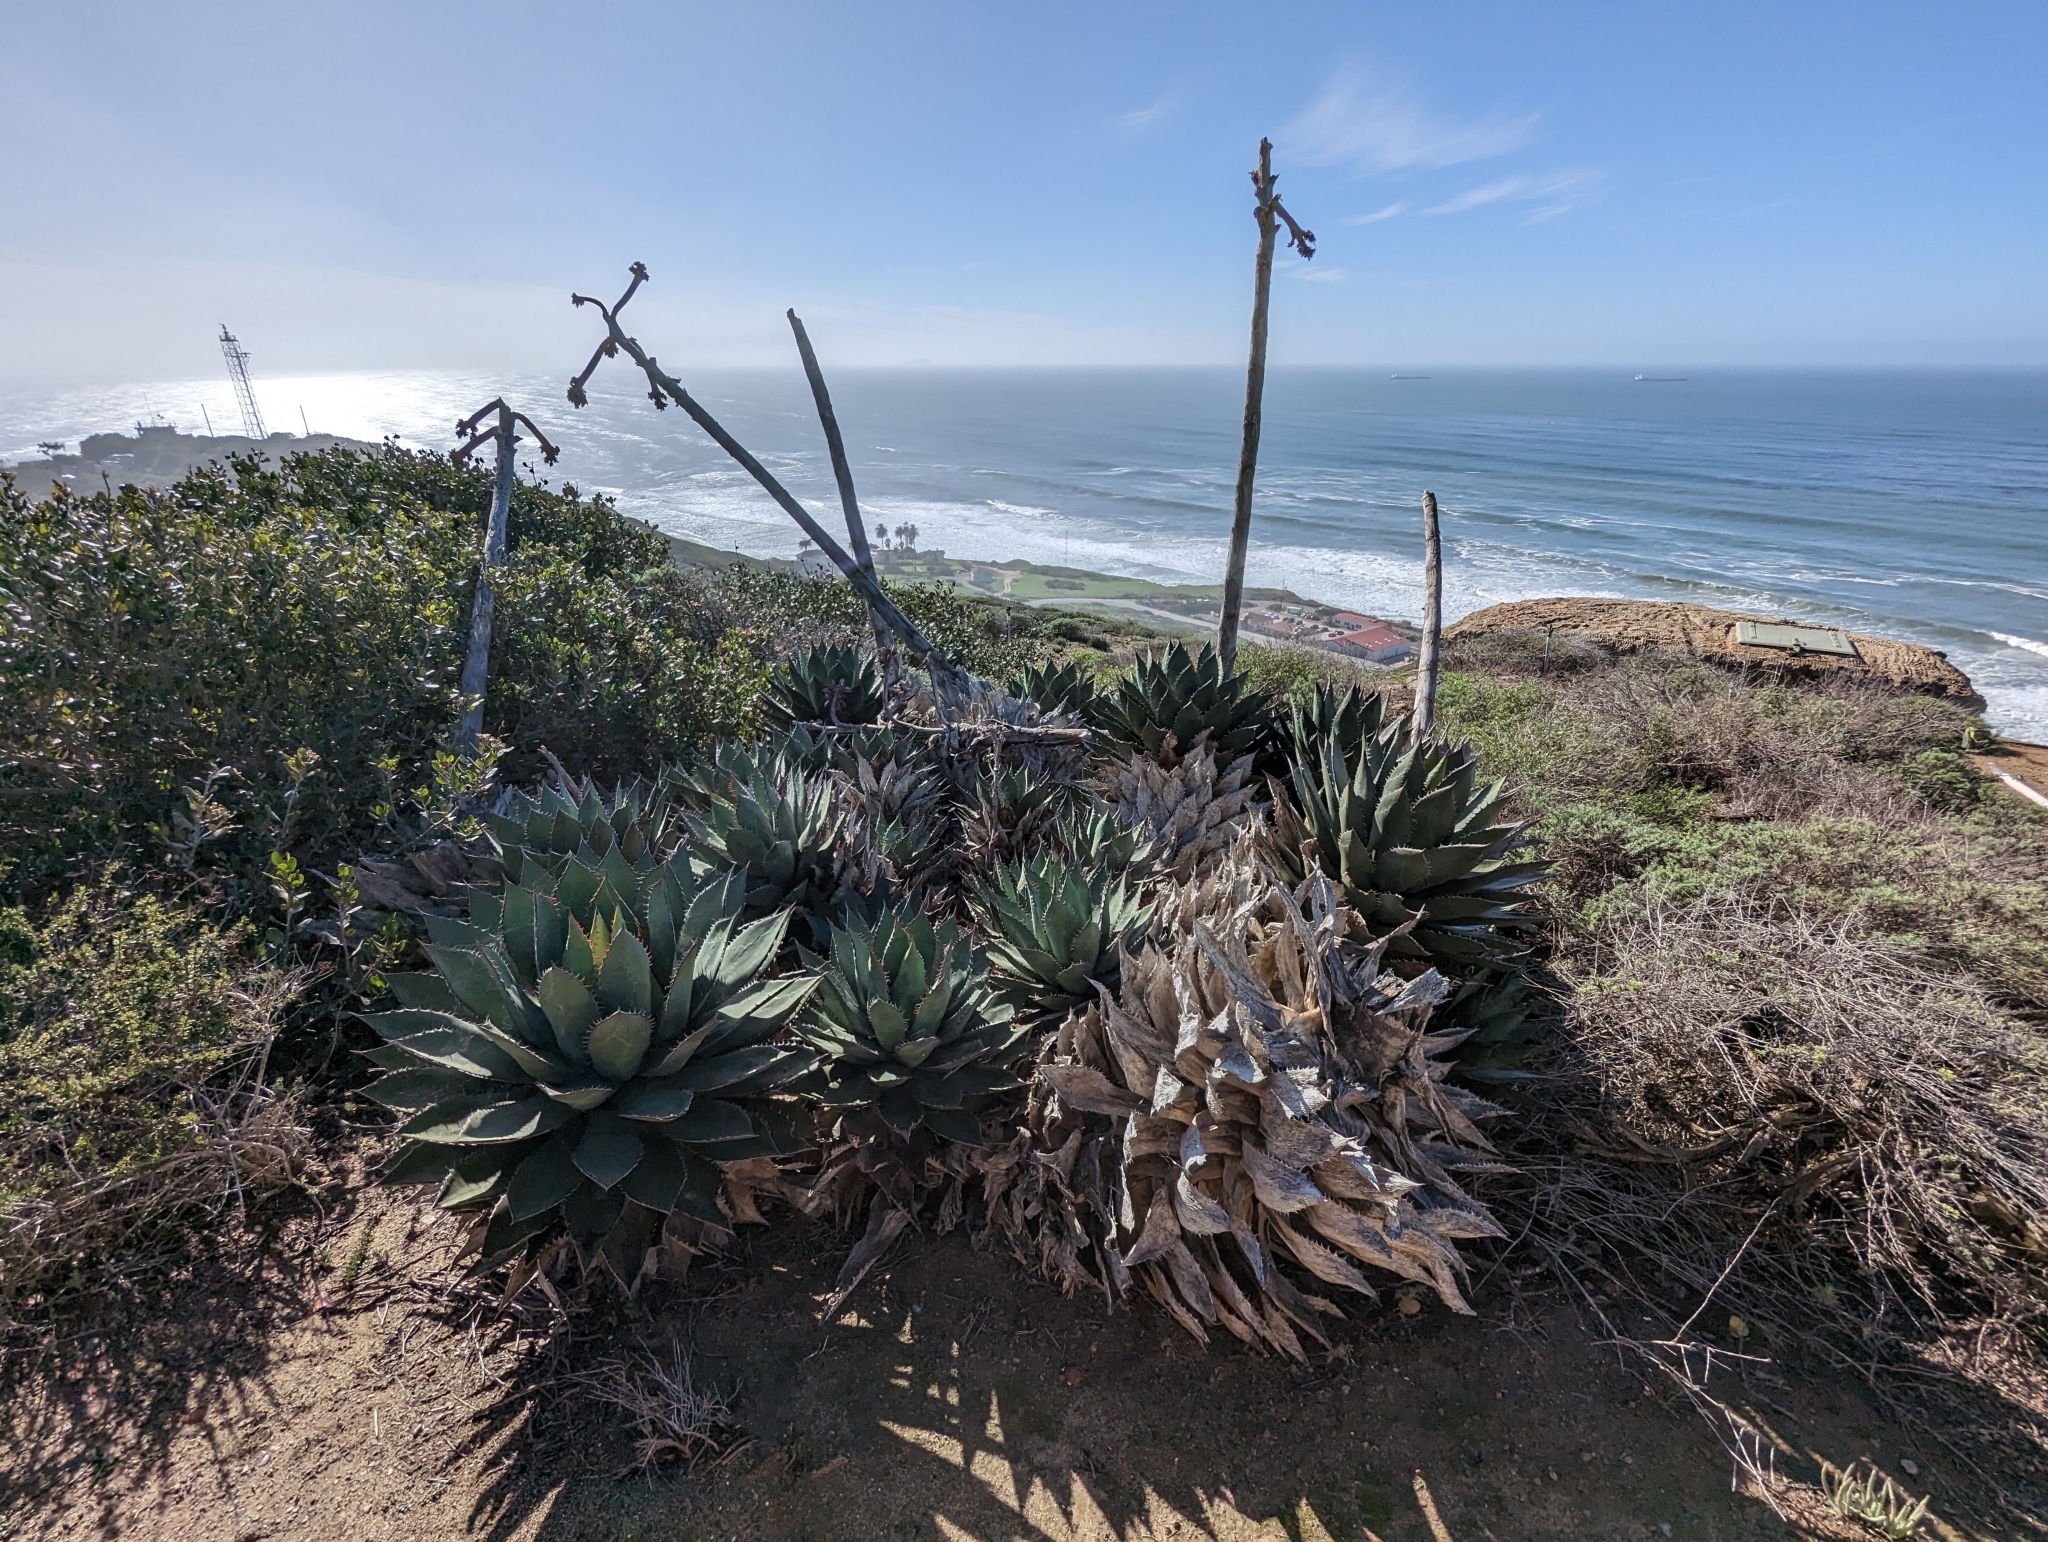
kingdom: Plantae
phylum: Tracheophyta
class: Liliopsida
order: Asparagales
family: Asparagaceae
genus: Agave
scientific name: Agave shawii
